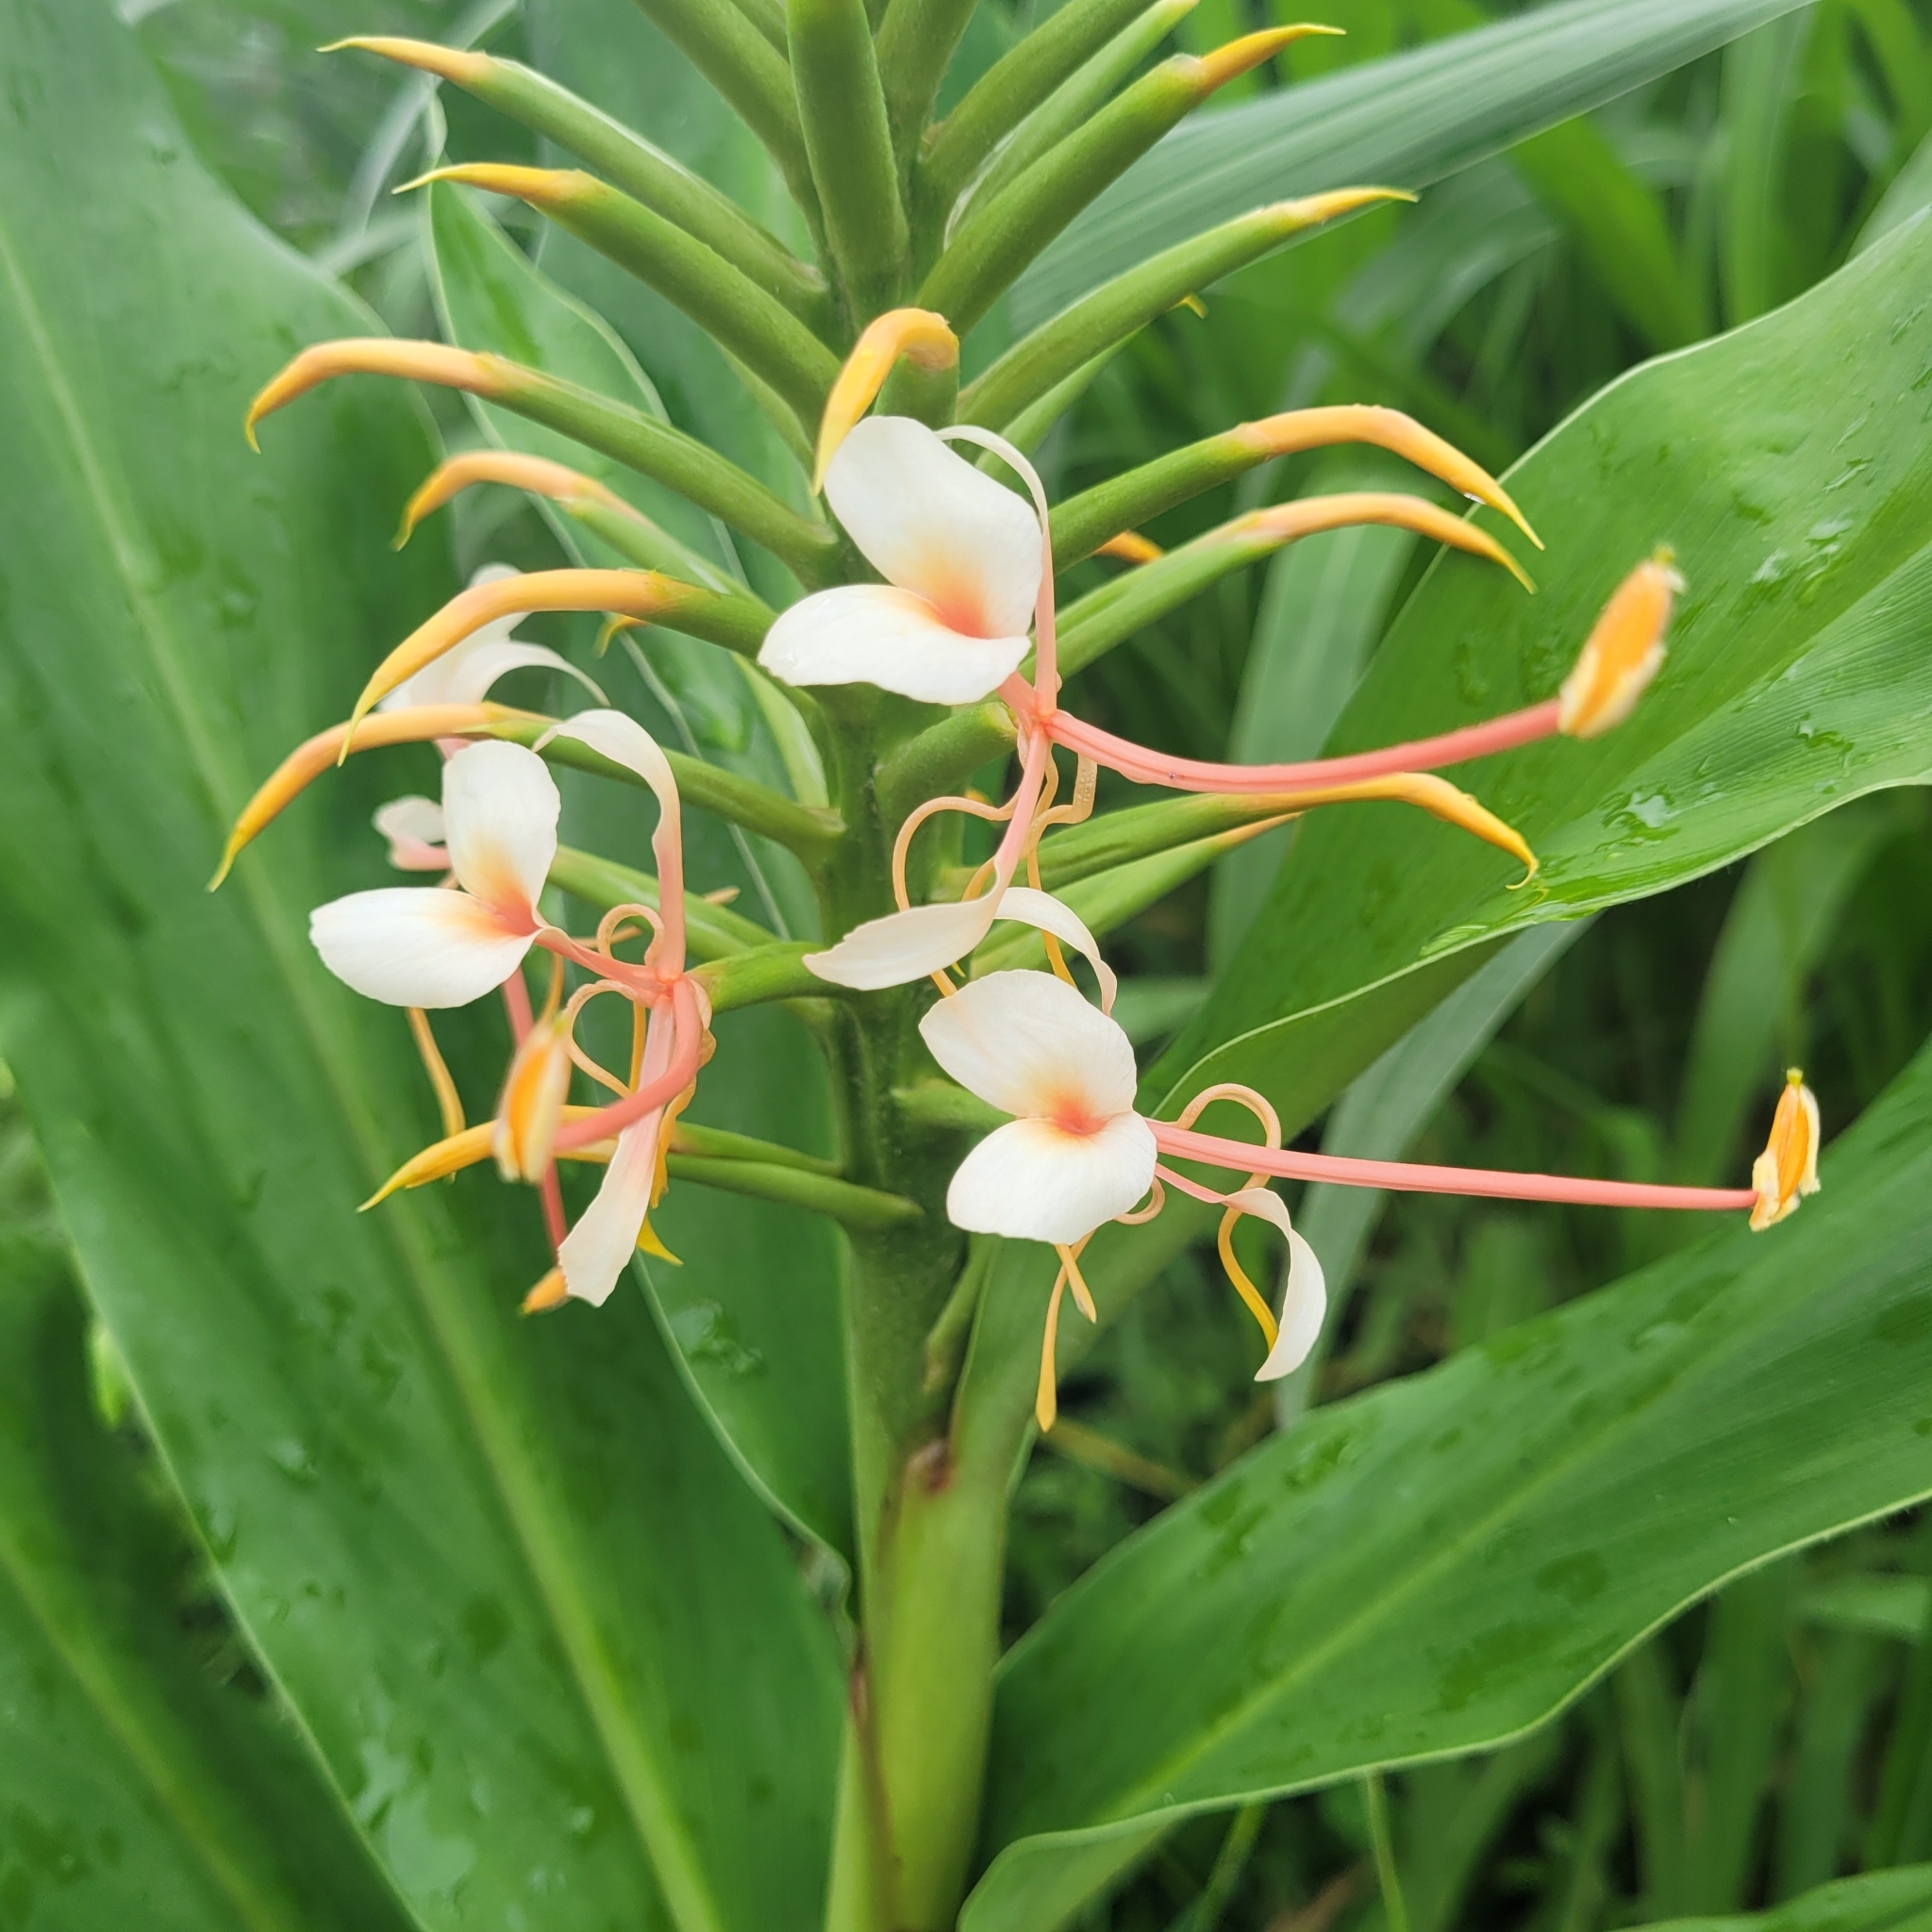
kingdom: Plantae
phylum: Tracheophyta
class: Liliopsida
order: Zingiberales
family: Zingiberaceae
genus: Hedychium
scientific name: Hedychium gardnerianum
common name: Himalayan ginger
